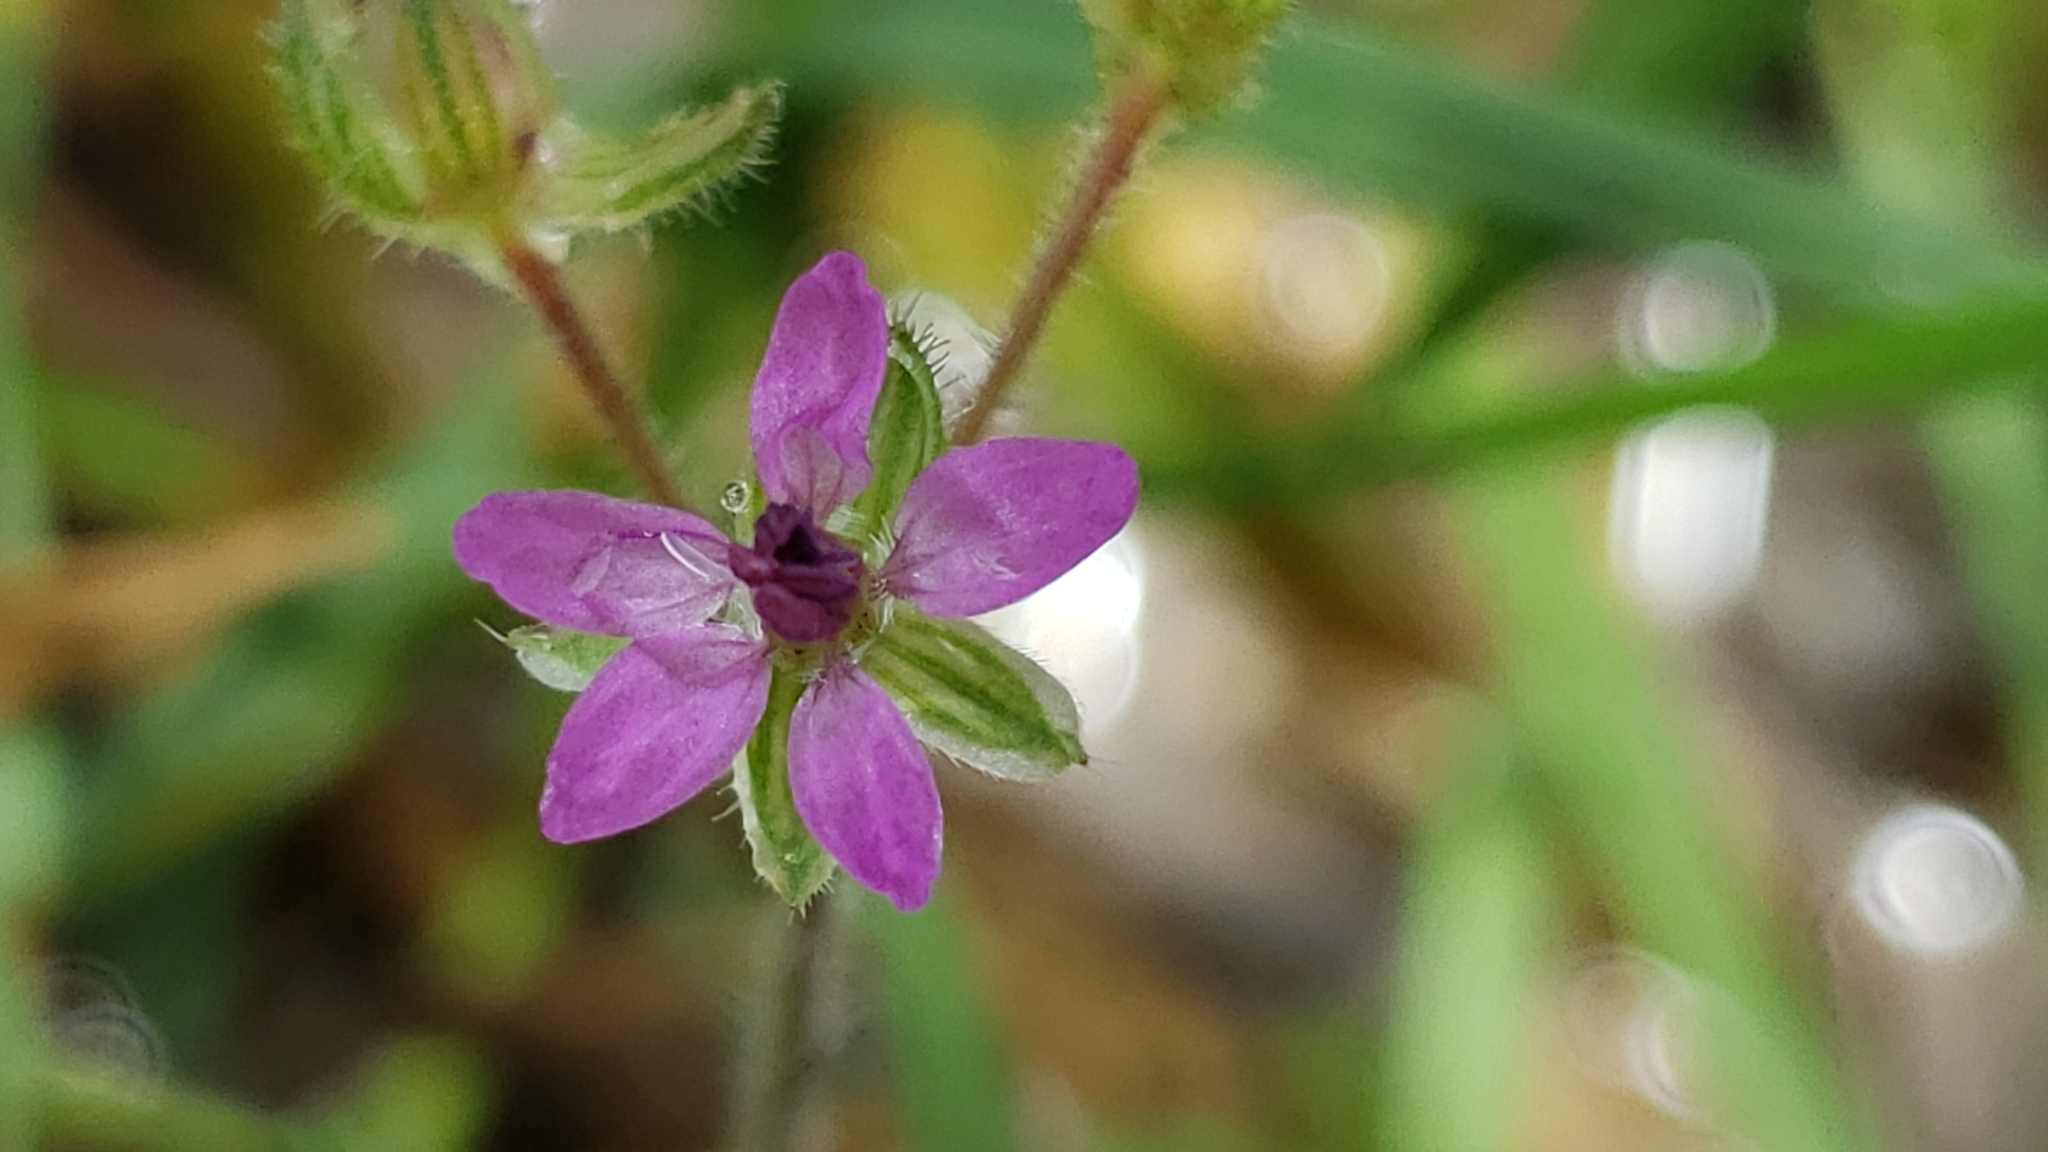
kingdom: Plantae
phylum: Tracheophyta
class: Magnoliopsida
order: Geraniales
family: Geraniaceae
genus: Erodium
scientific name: Erodium cicutarium
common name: Common stork's-bill
